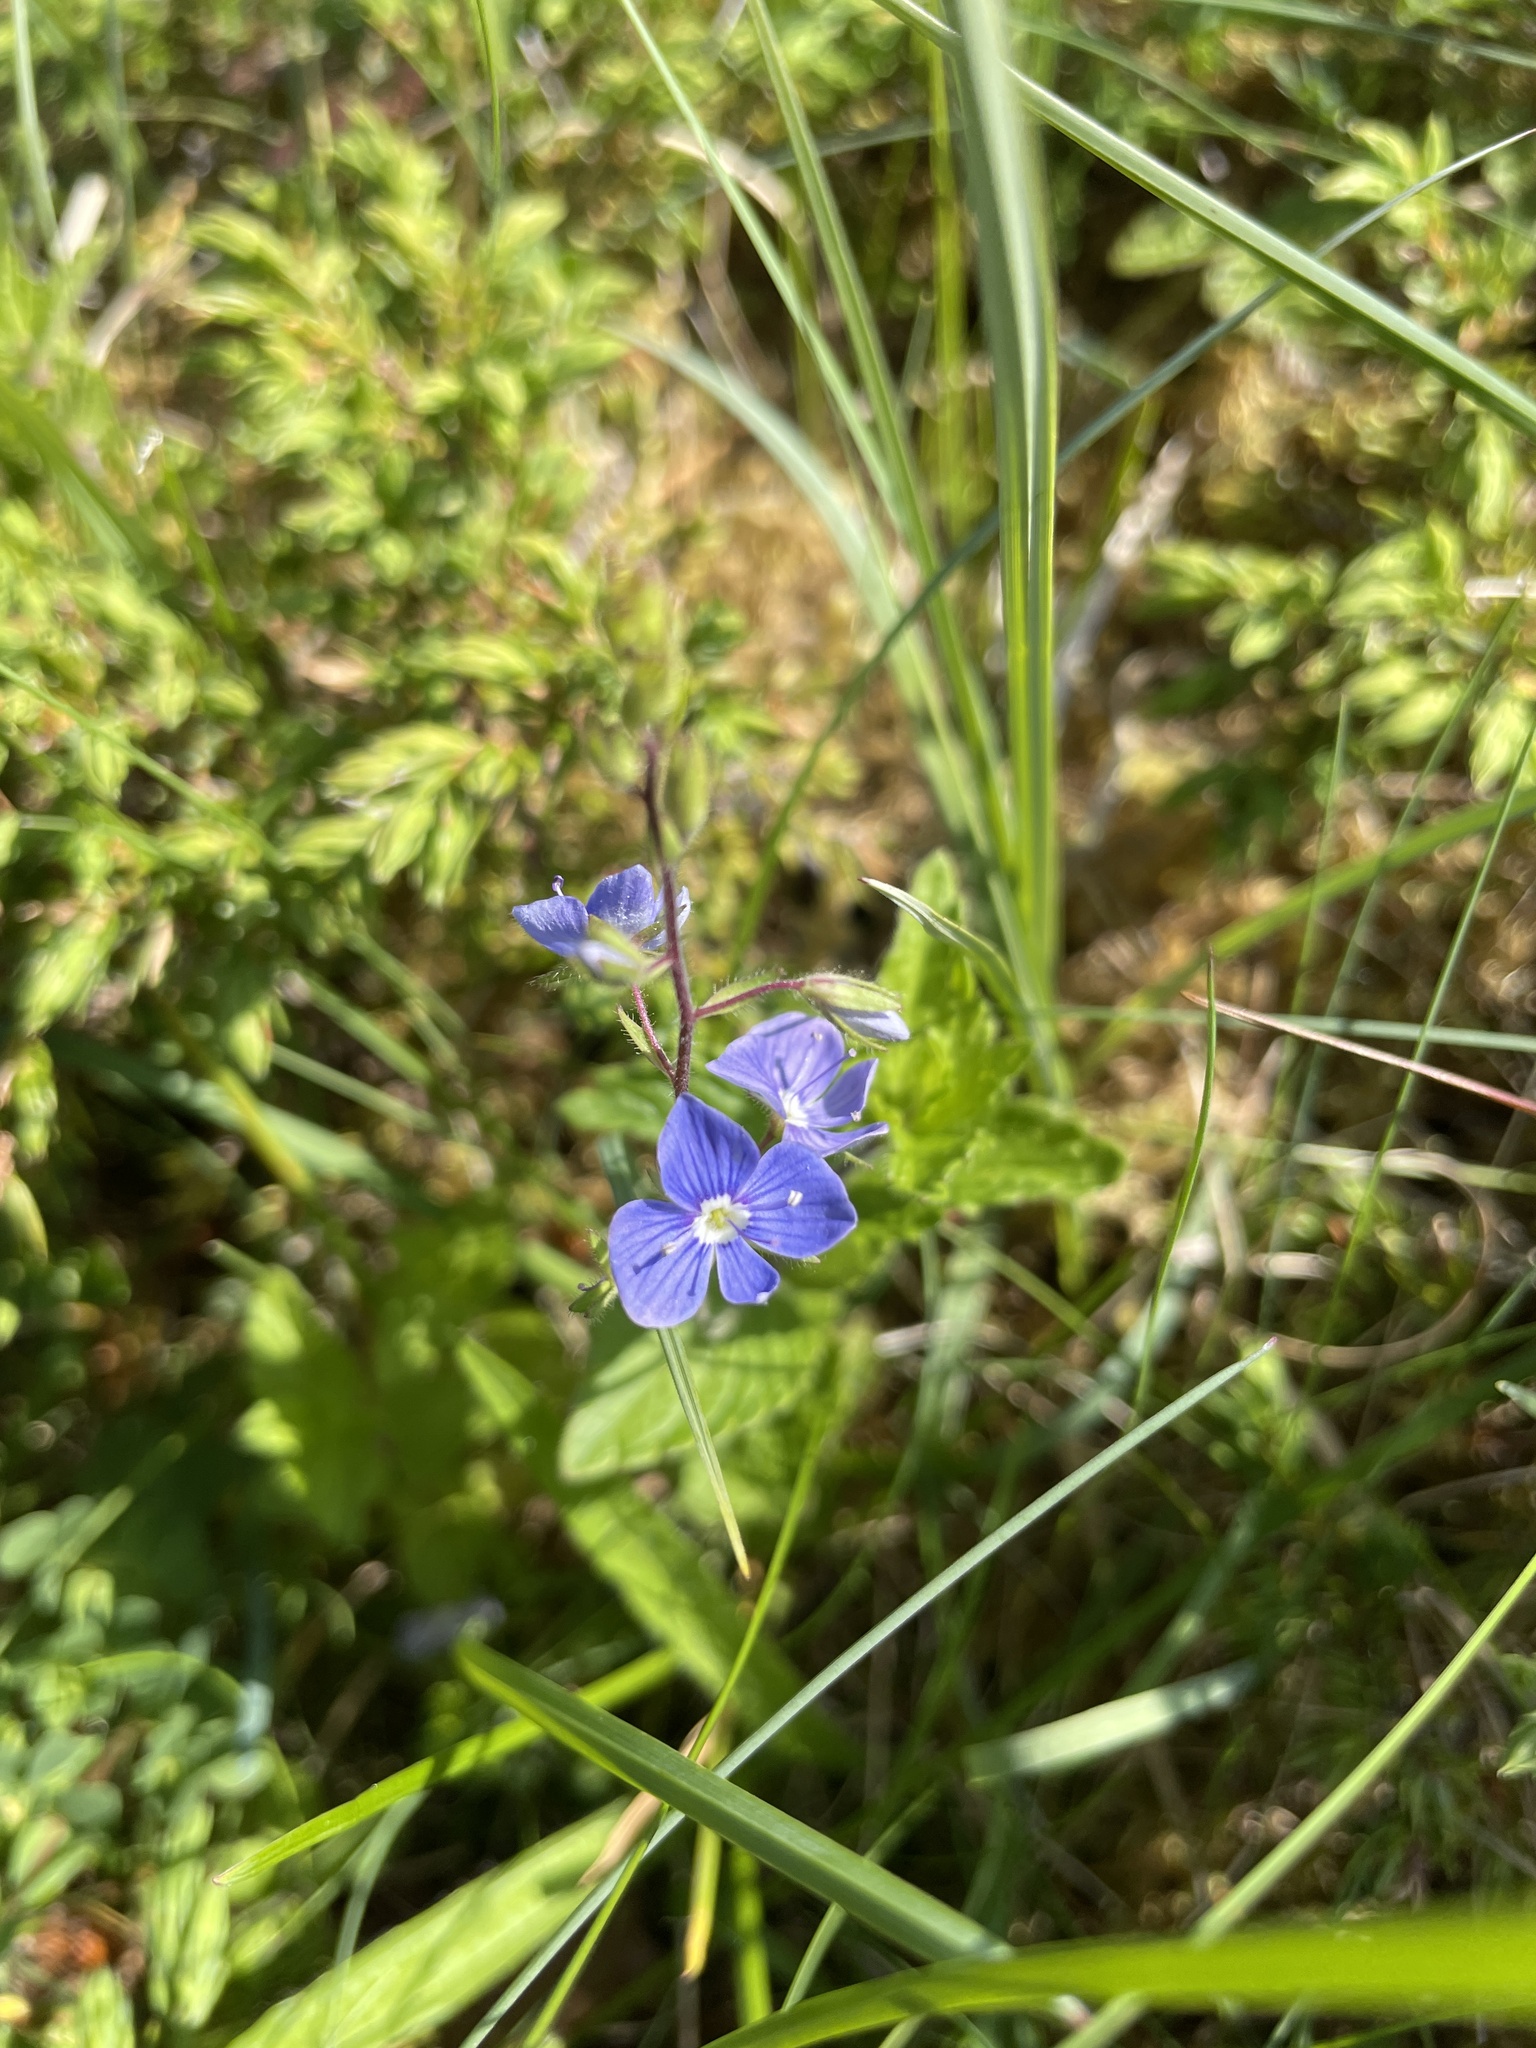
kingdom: Plantae
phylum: Tracheophyta
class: Magnoliopsida
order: Lamiales
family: Plantaginaceae
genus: Veronica
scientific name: Veronica chamaedrys
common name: Germander speedwell
